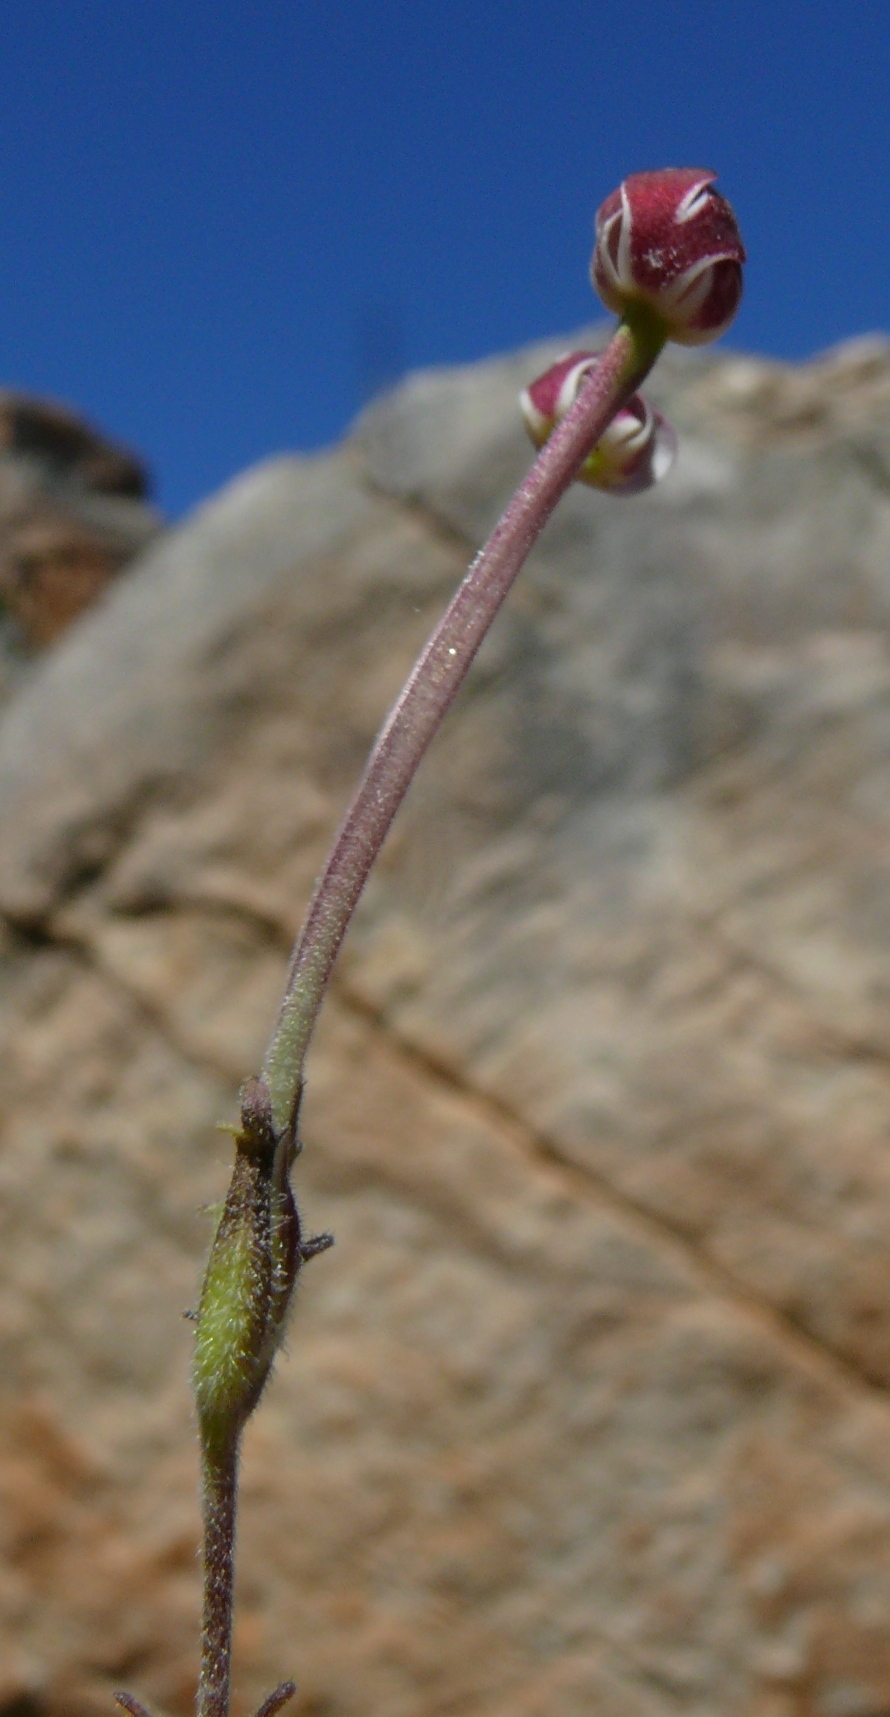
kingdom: Plantae
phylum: Tracheophyta
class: Magnoliopsida
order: Lamiales
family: Scrophulariaceae
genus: Zaluzianskya
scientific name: Zaluzianskya capensis
